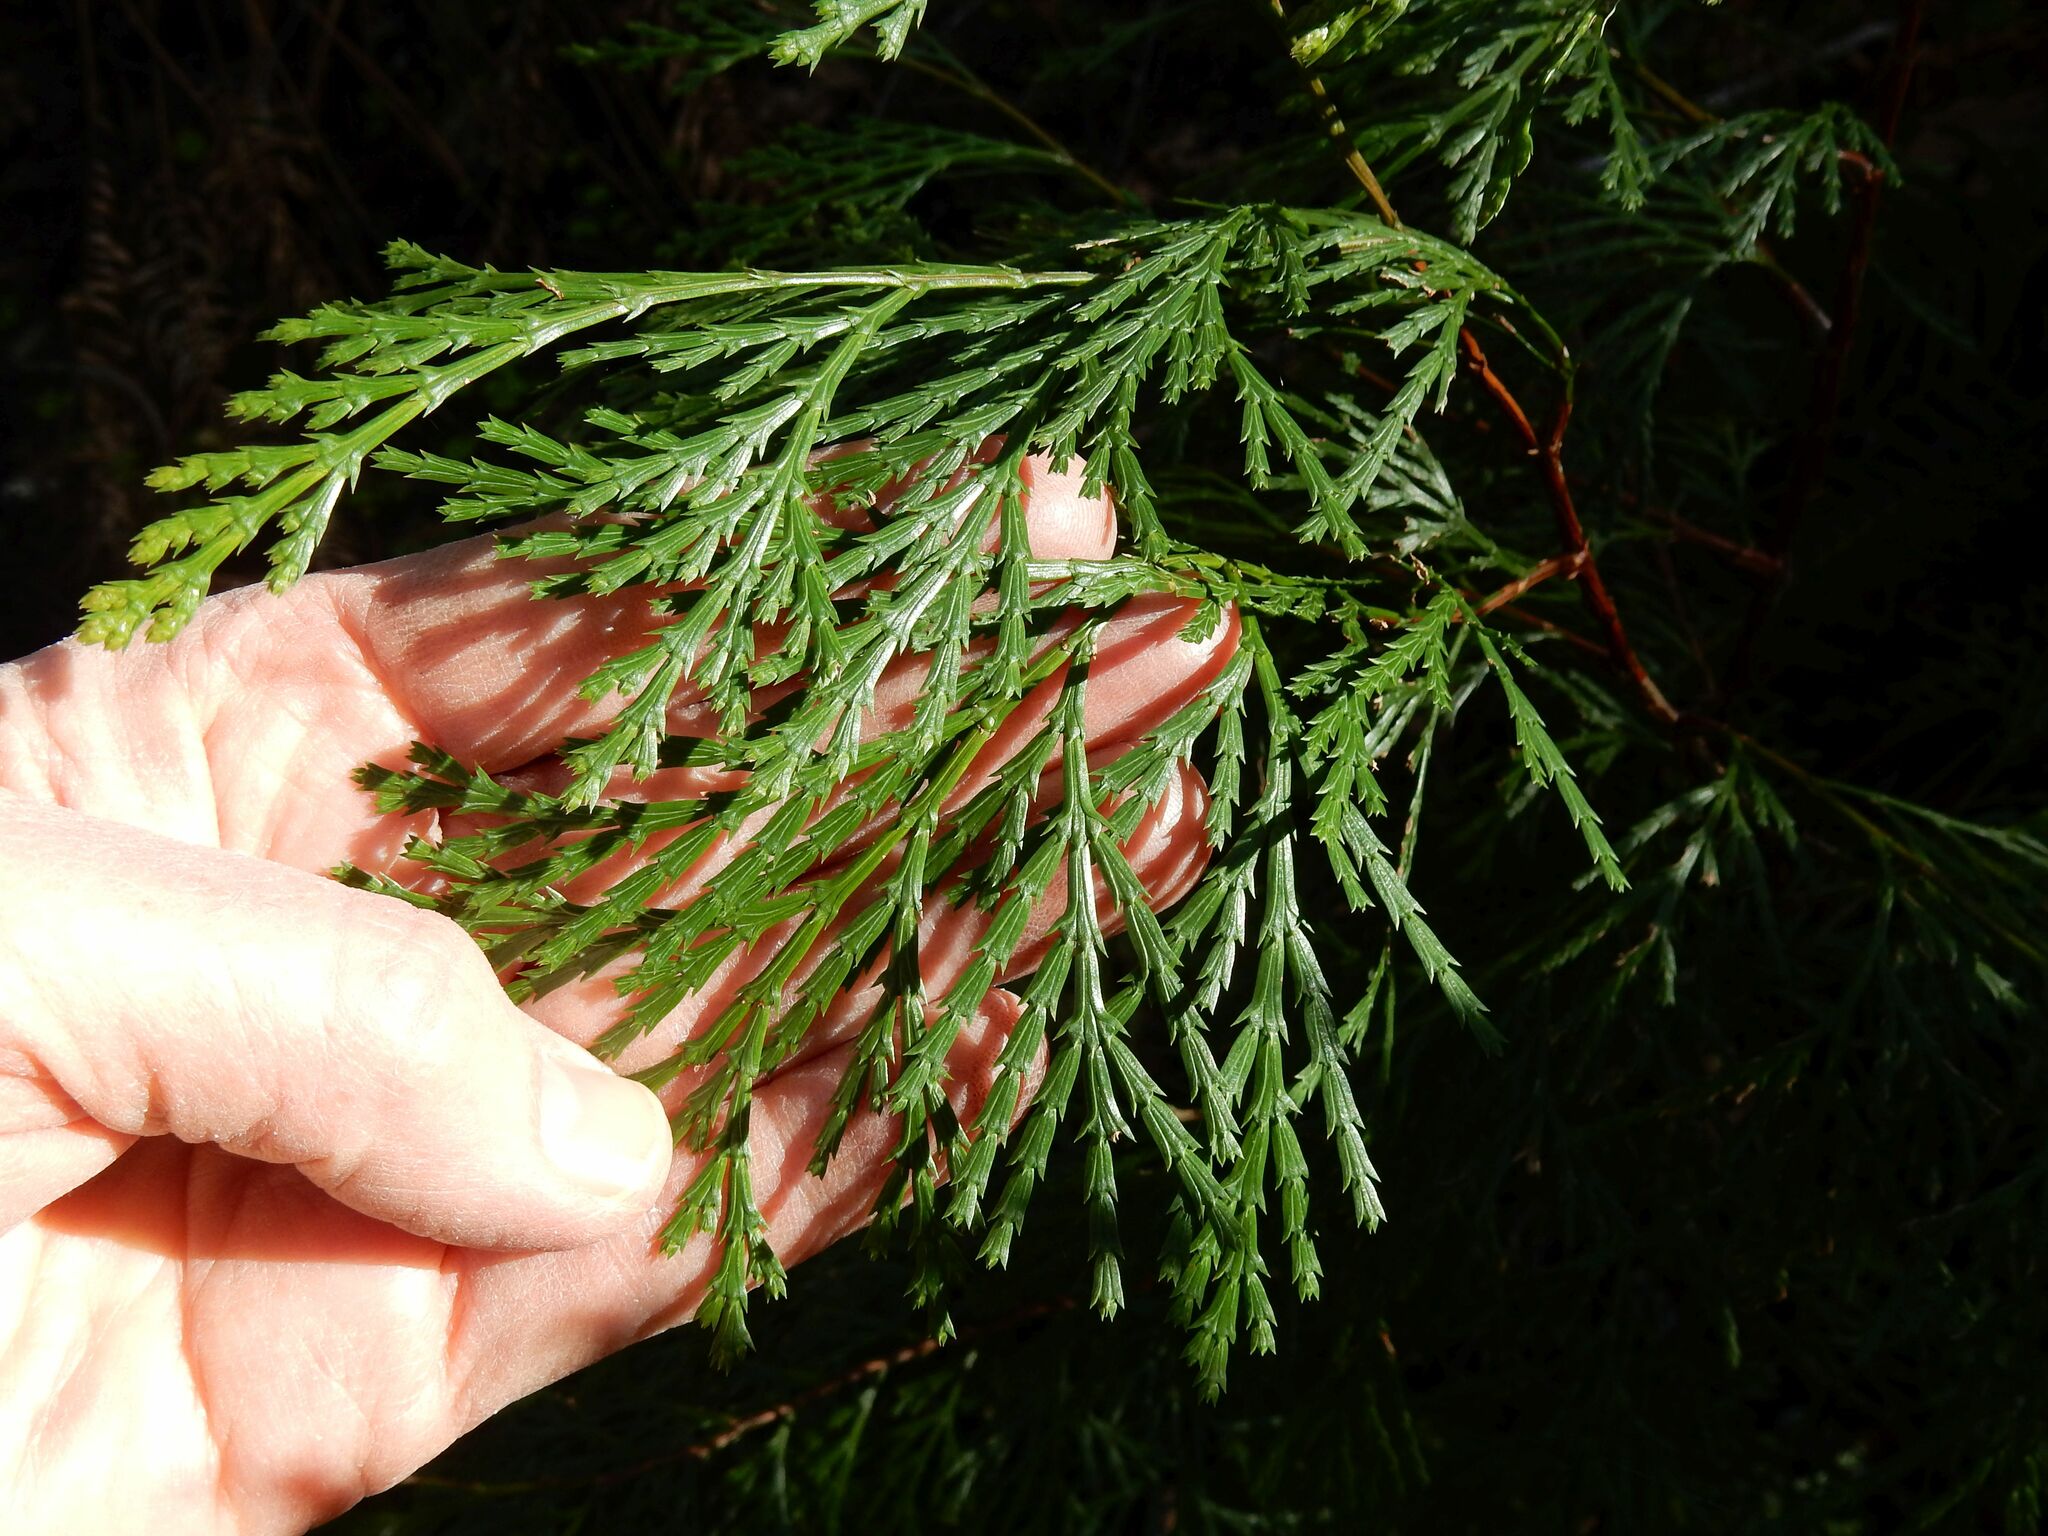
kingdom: Plantae
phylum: Tracheophyta
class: Pinopsida
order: Pinales
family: Cupressaceae
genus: Calocedrus
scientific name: Calocedrus decurrens
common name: Californian incense-cedar
